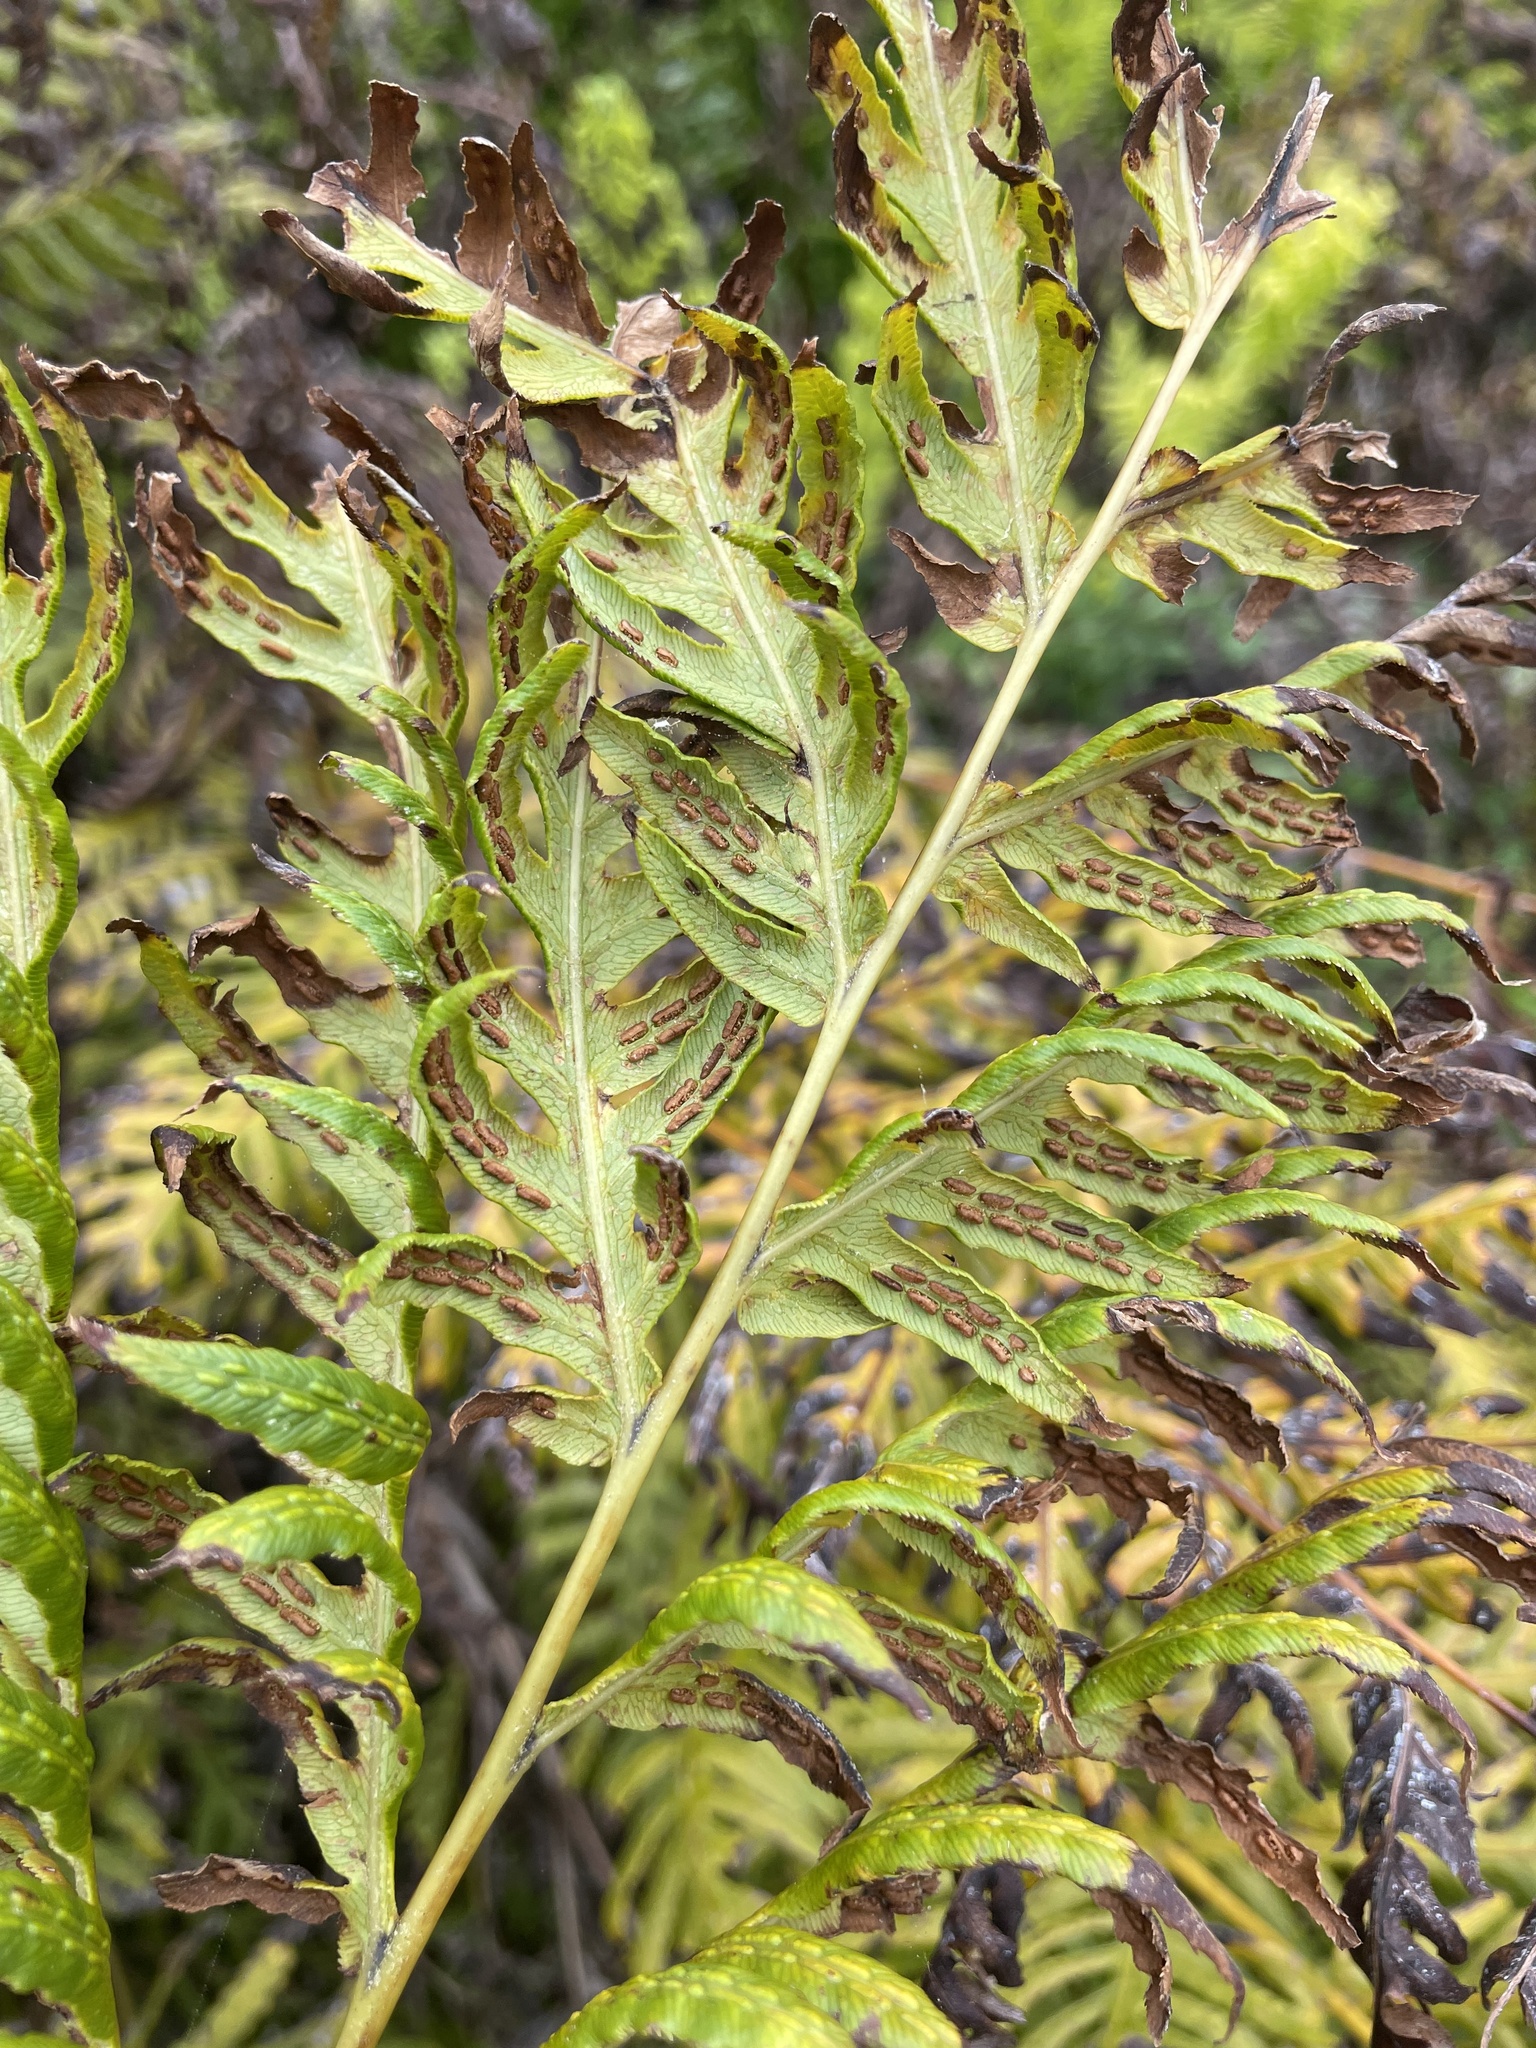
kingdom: Plantae
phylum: Tracheophyta
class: Polypodiopsida
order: Polypodiales
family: Blechnaceae
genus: Woodwardia
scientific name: Woodwardia fimbriata
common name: Giant chain fern
